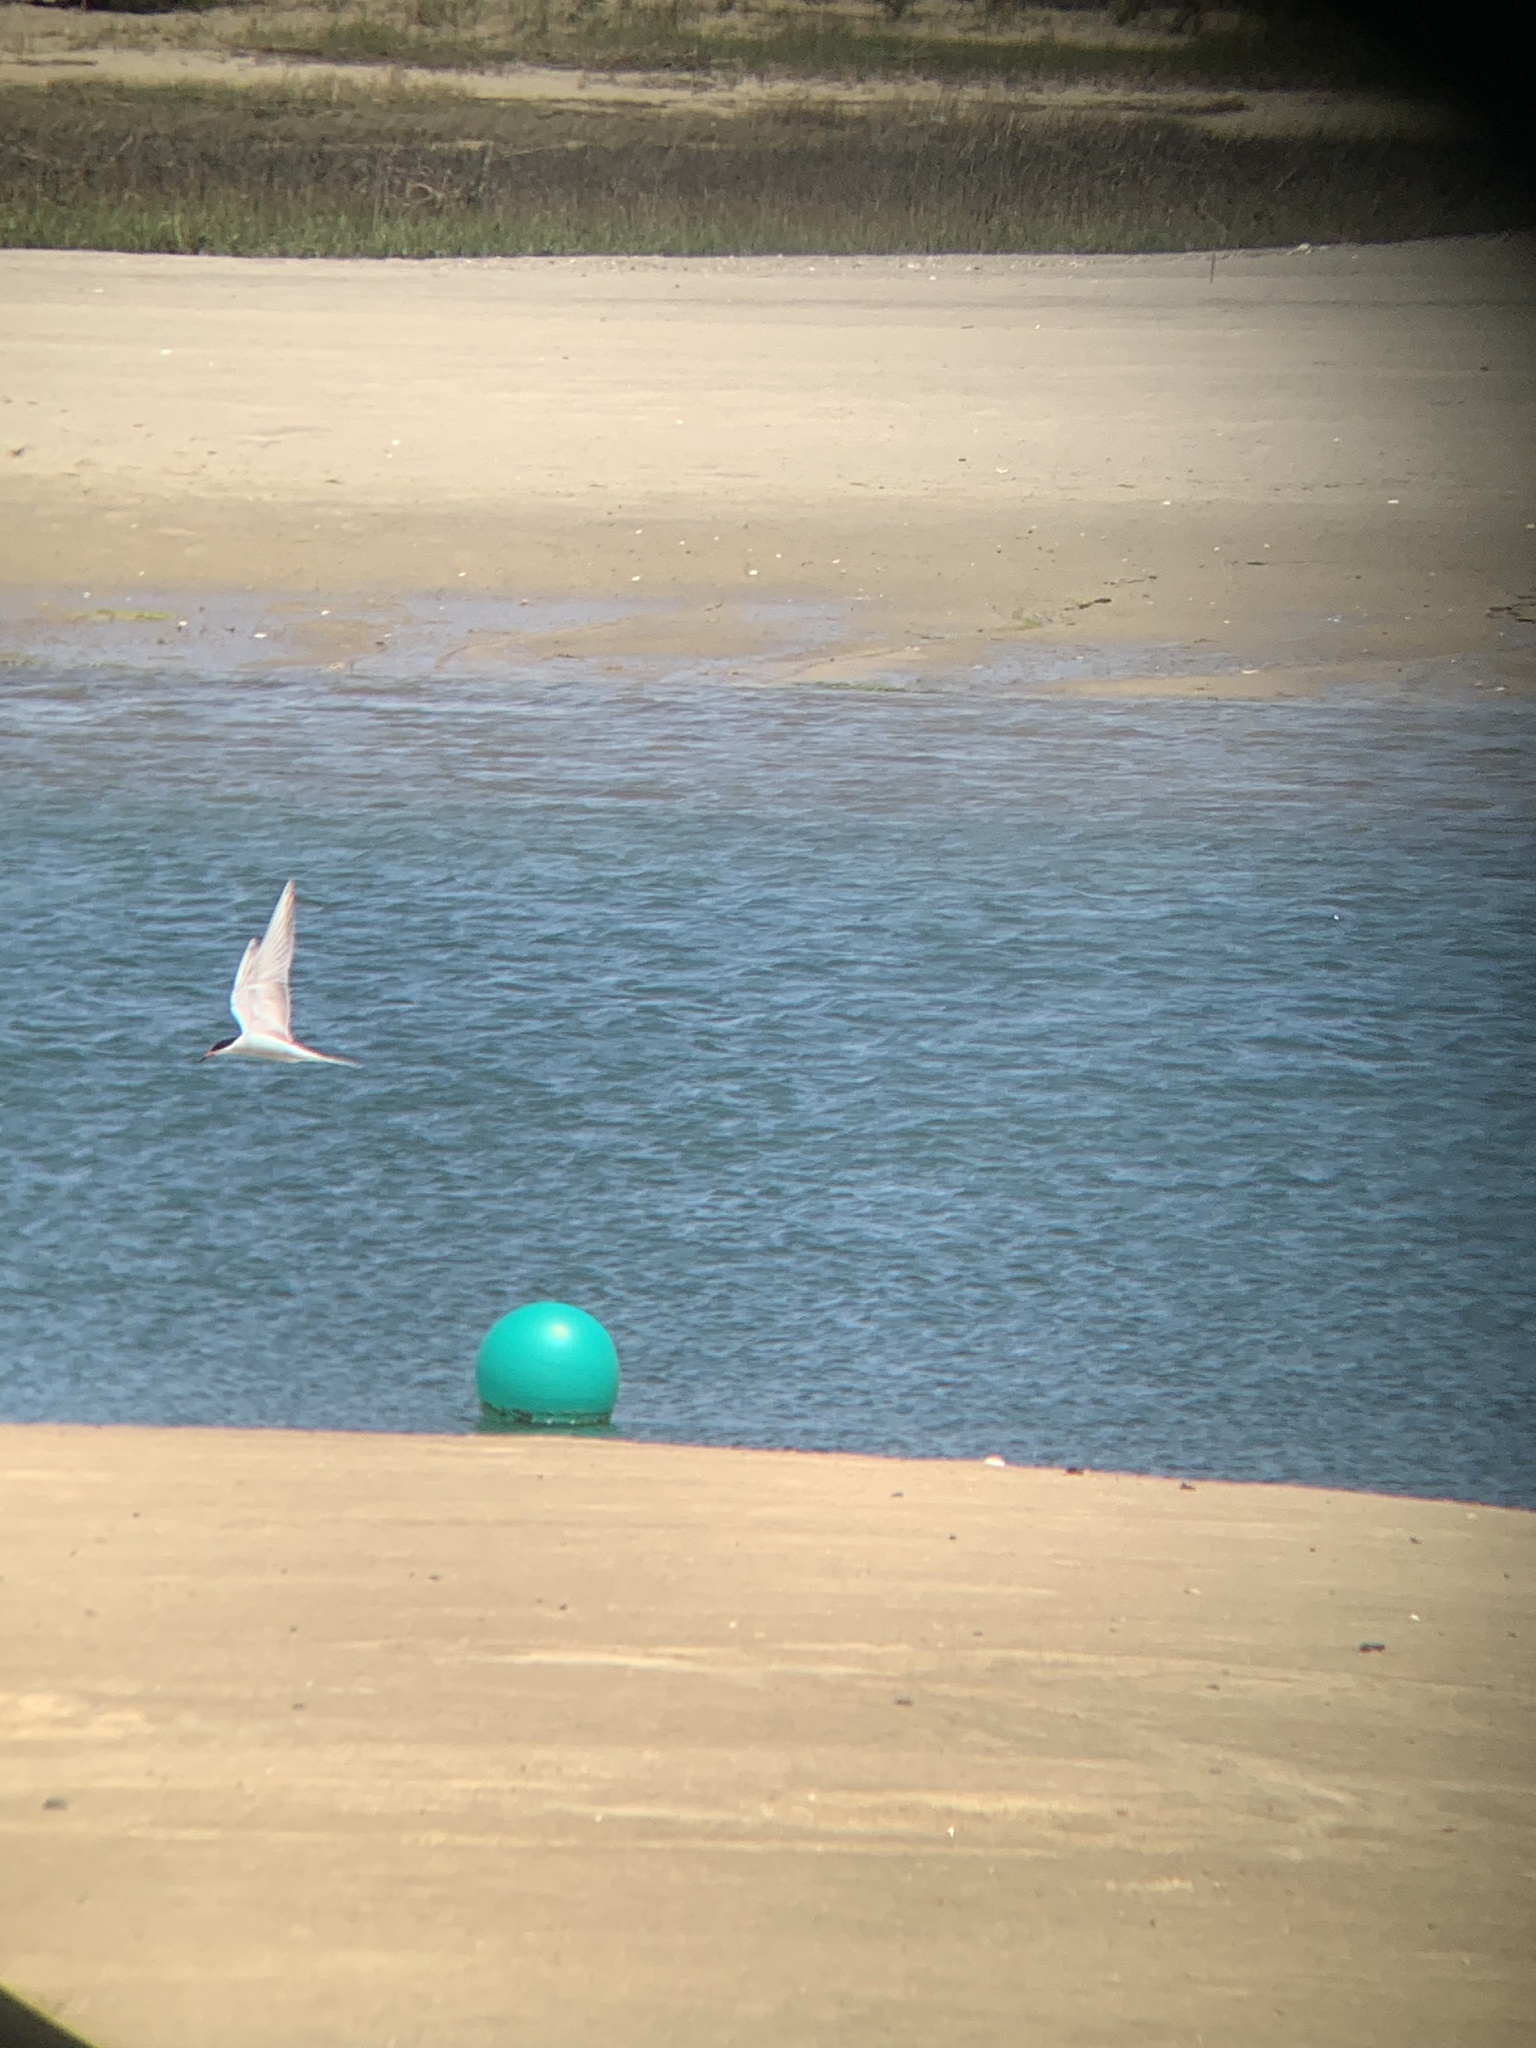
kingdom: Animalia
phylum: Chordata
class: Aves
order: Charadriiformes
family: Laridae
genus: Sterna
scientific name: Sterna hirundo
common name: Common tern
